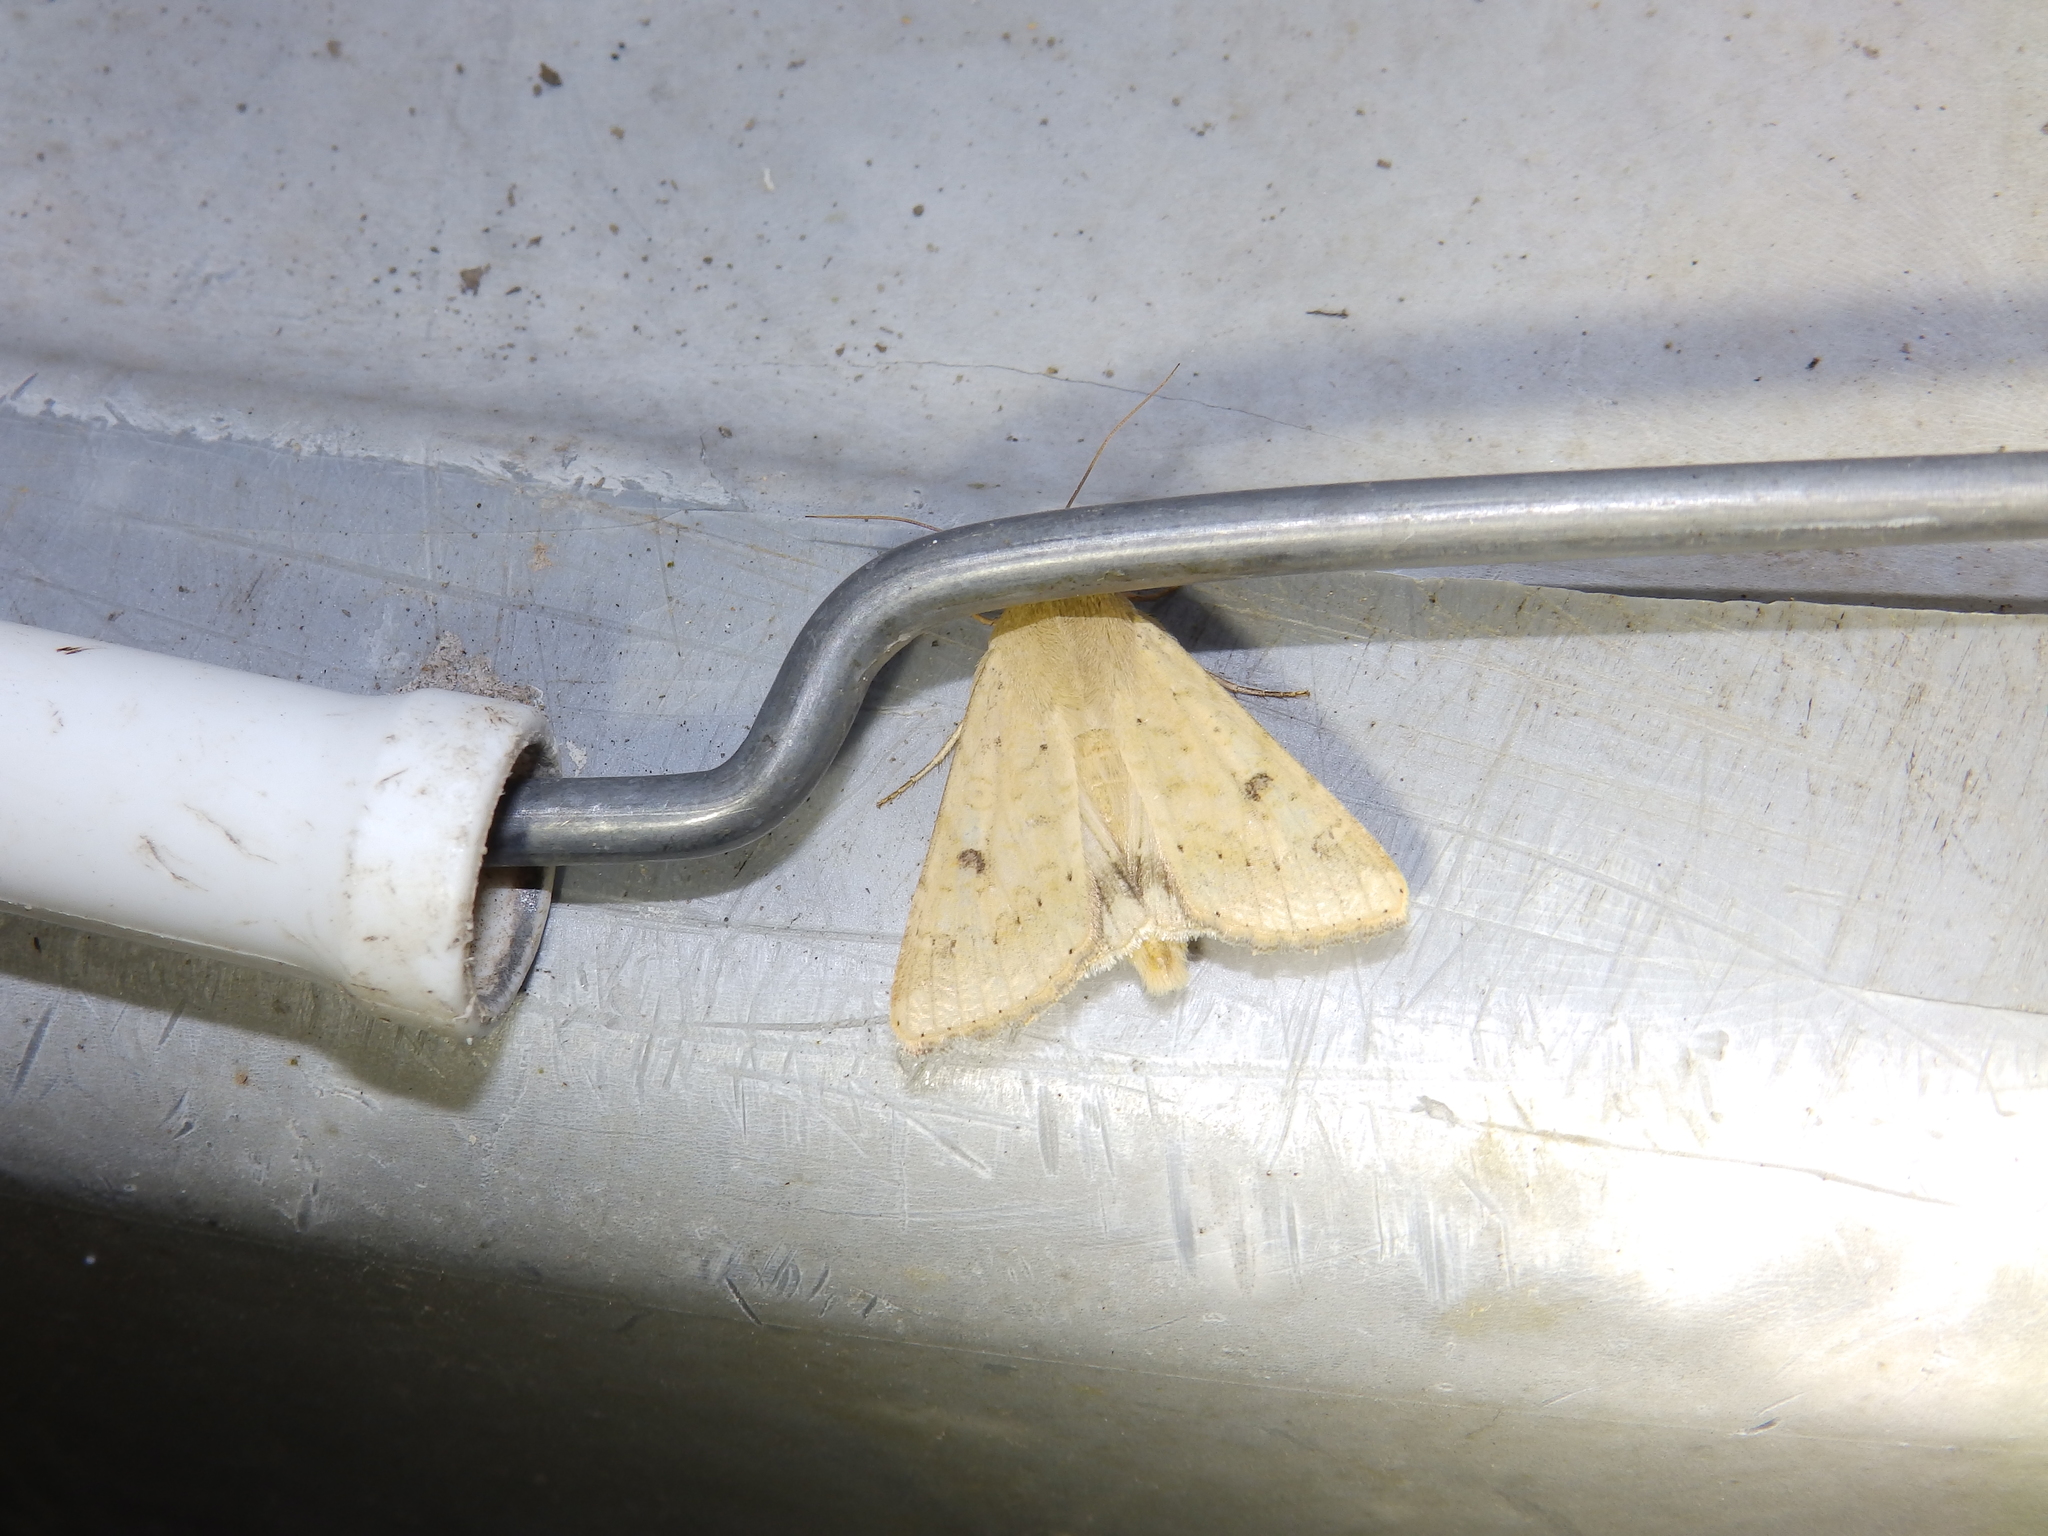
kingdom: Animalia
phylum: Arthropoda
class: Insecta
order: Lepidoptera
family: Noctuidae
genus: Helicoverpa
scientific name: Helicoverpa zea
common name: Bollworm
